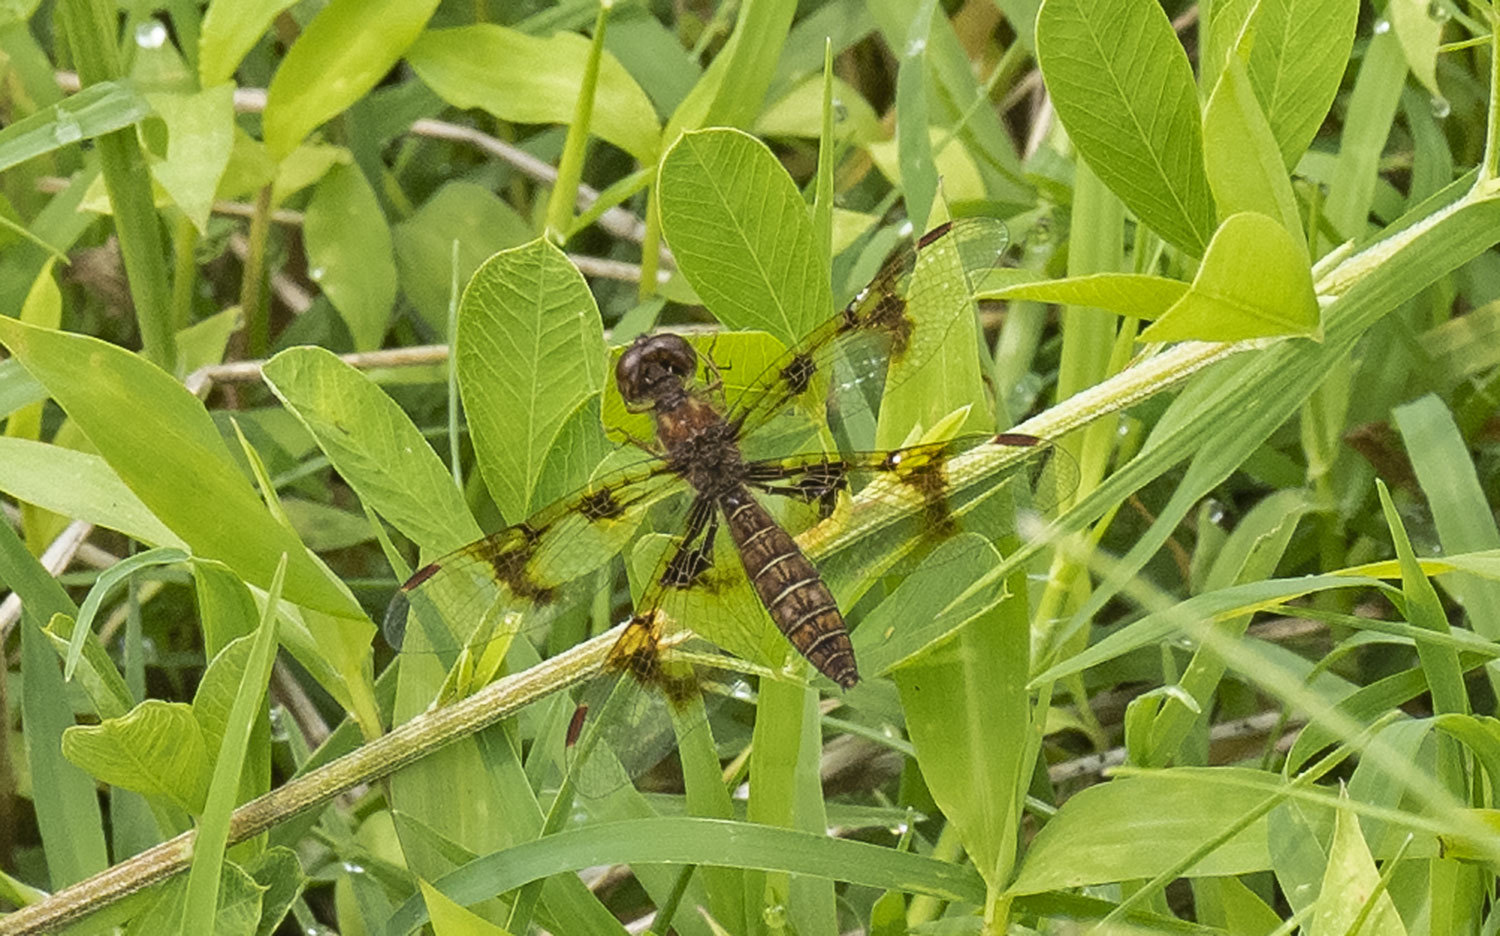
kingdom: Animalia
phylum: Arthropoda
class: Insecta
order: Odonata
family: Libellulidae
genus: Perithemis
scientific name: Perithemis tenera
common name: Eastern amberwing
